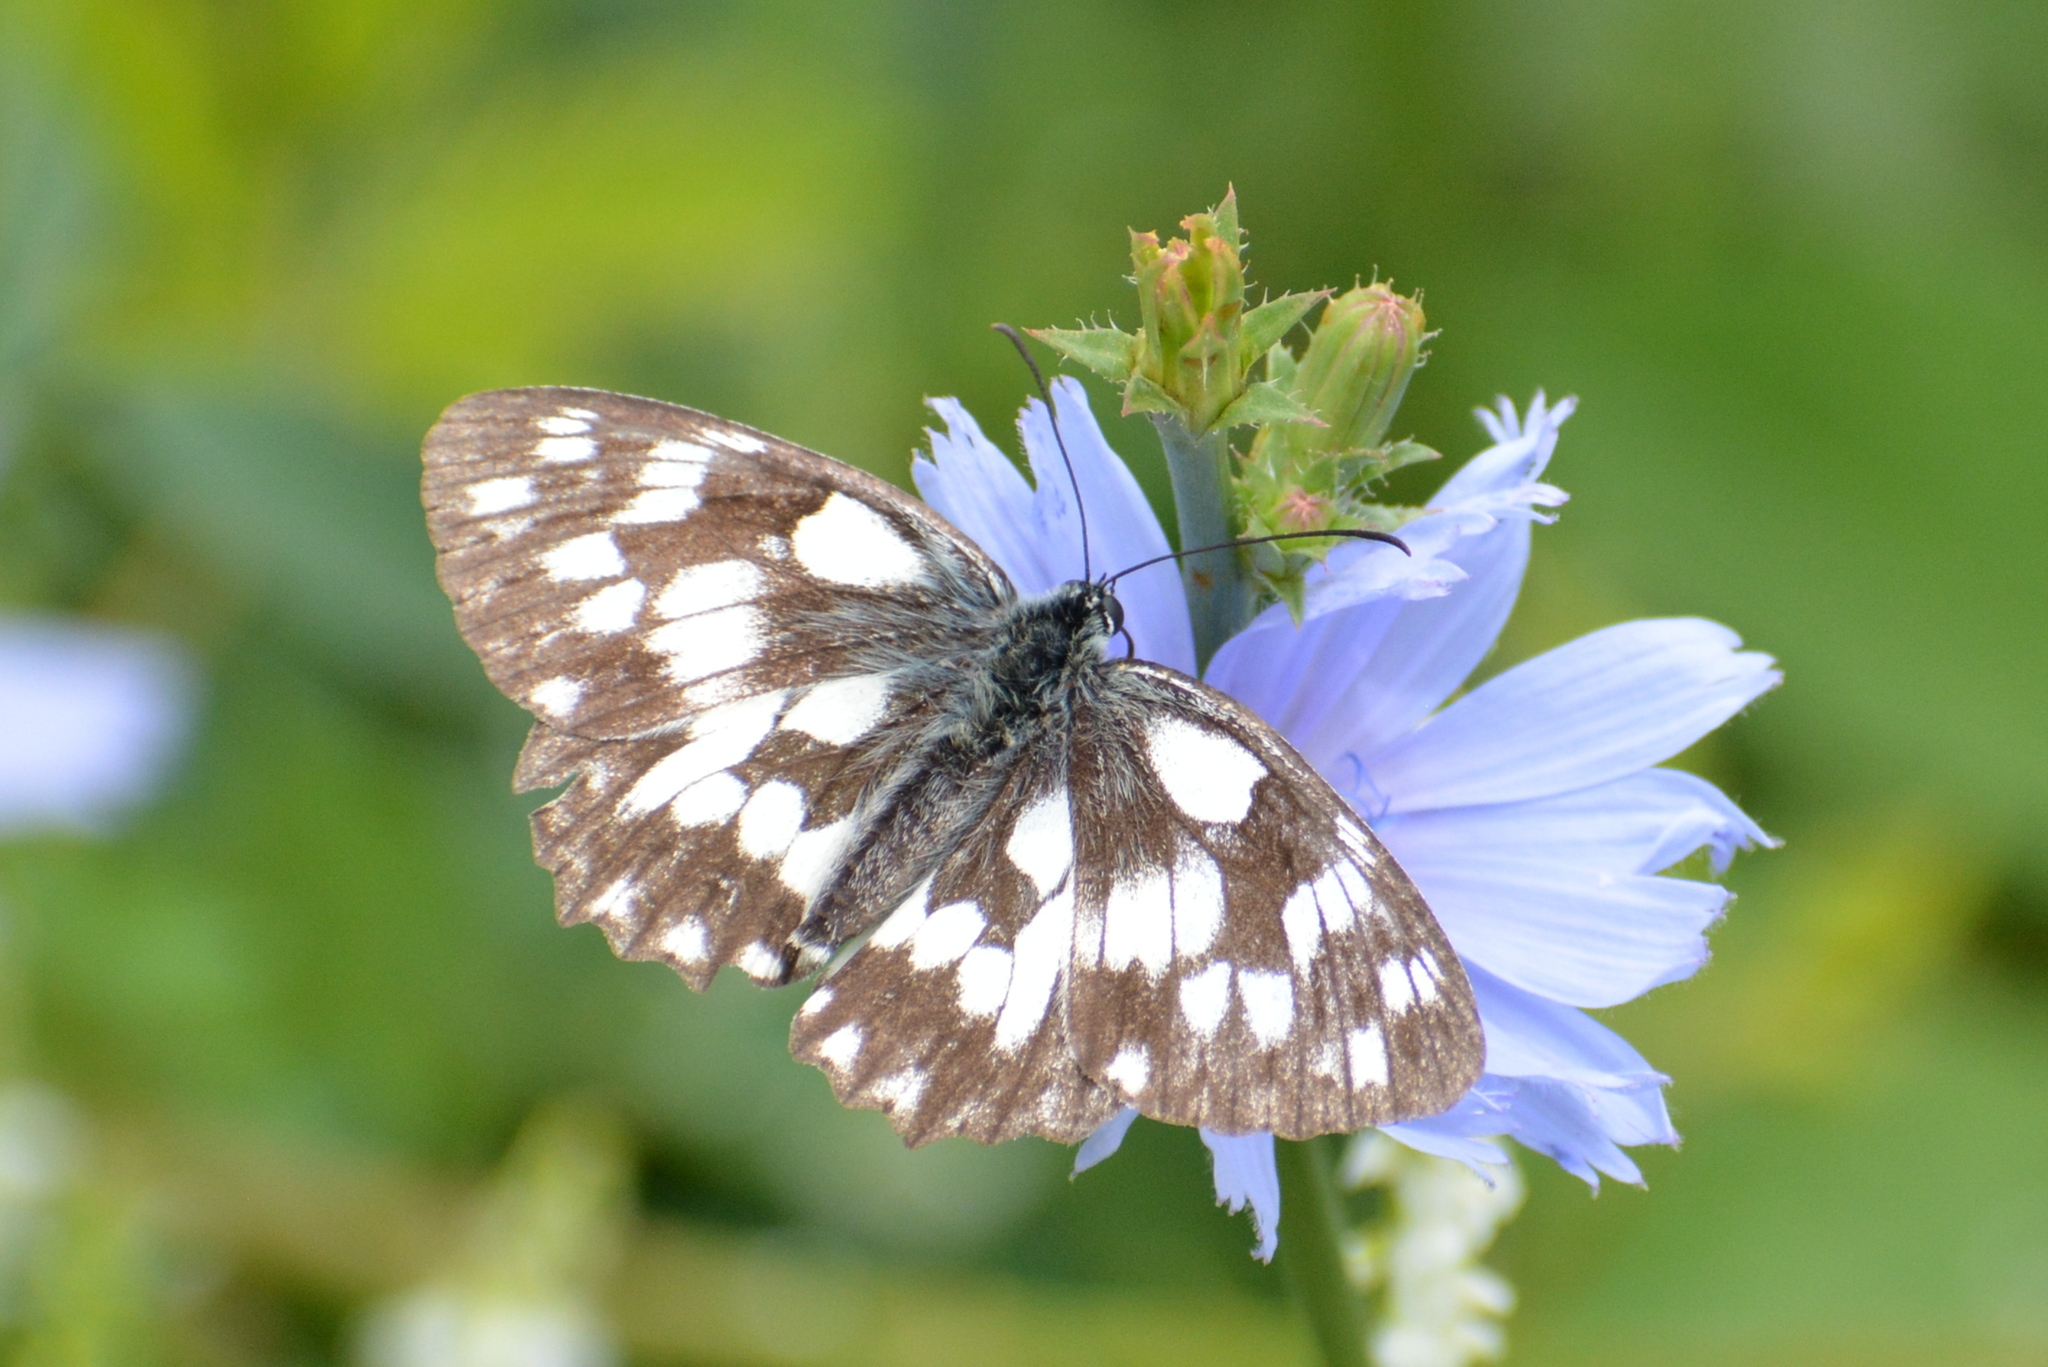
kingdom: Animalia
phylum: Arthropoda
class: Insecta
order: Lepidoptera
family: Nymphalidae
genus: Melanargia
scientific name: Melanargia galathea
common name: Marbled white
